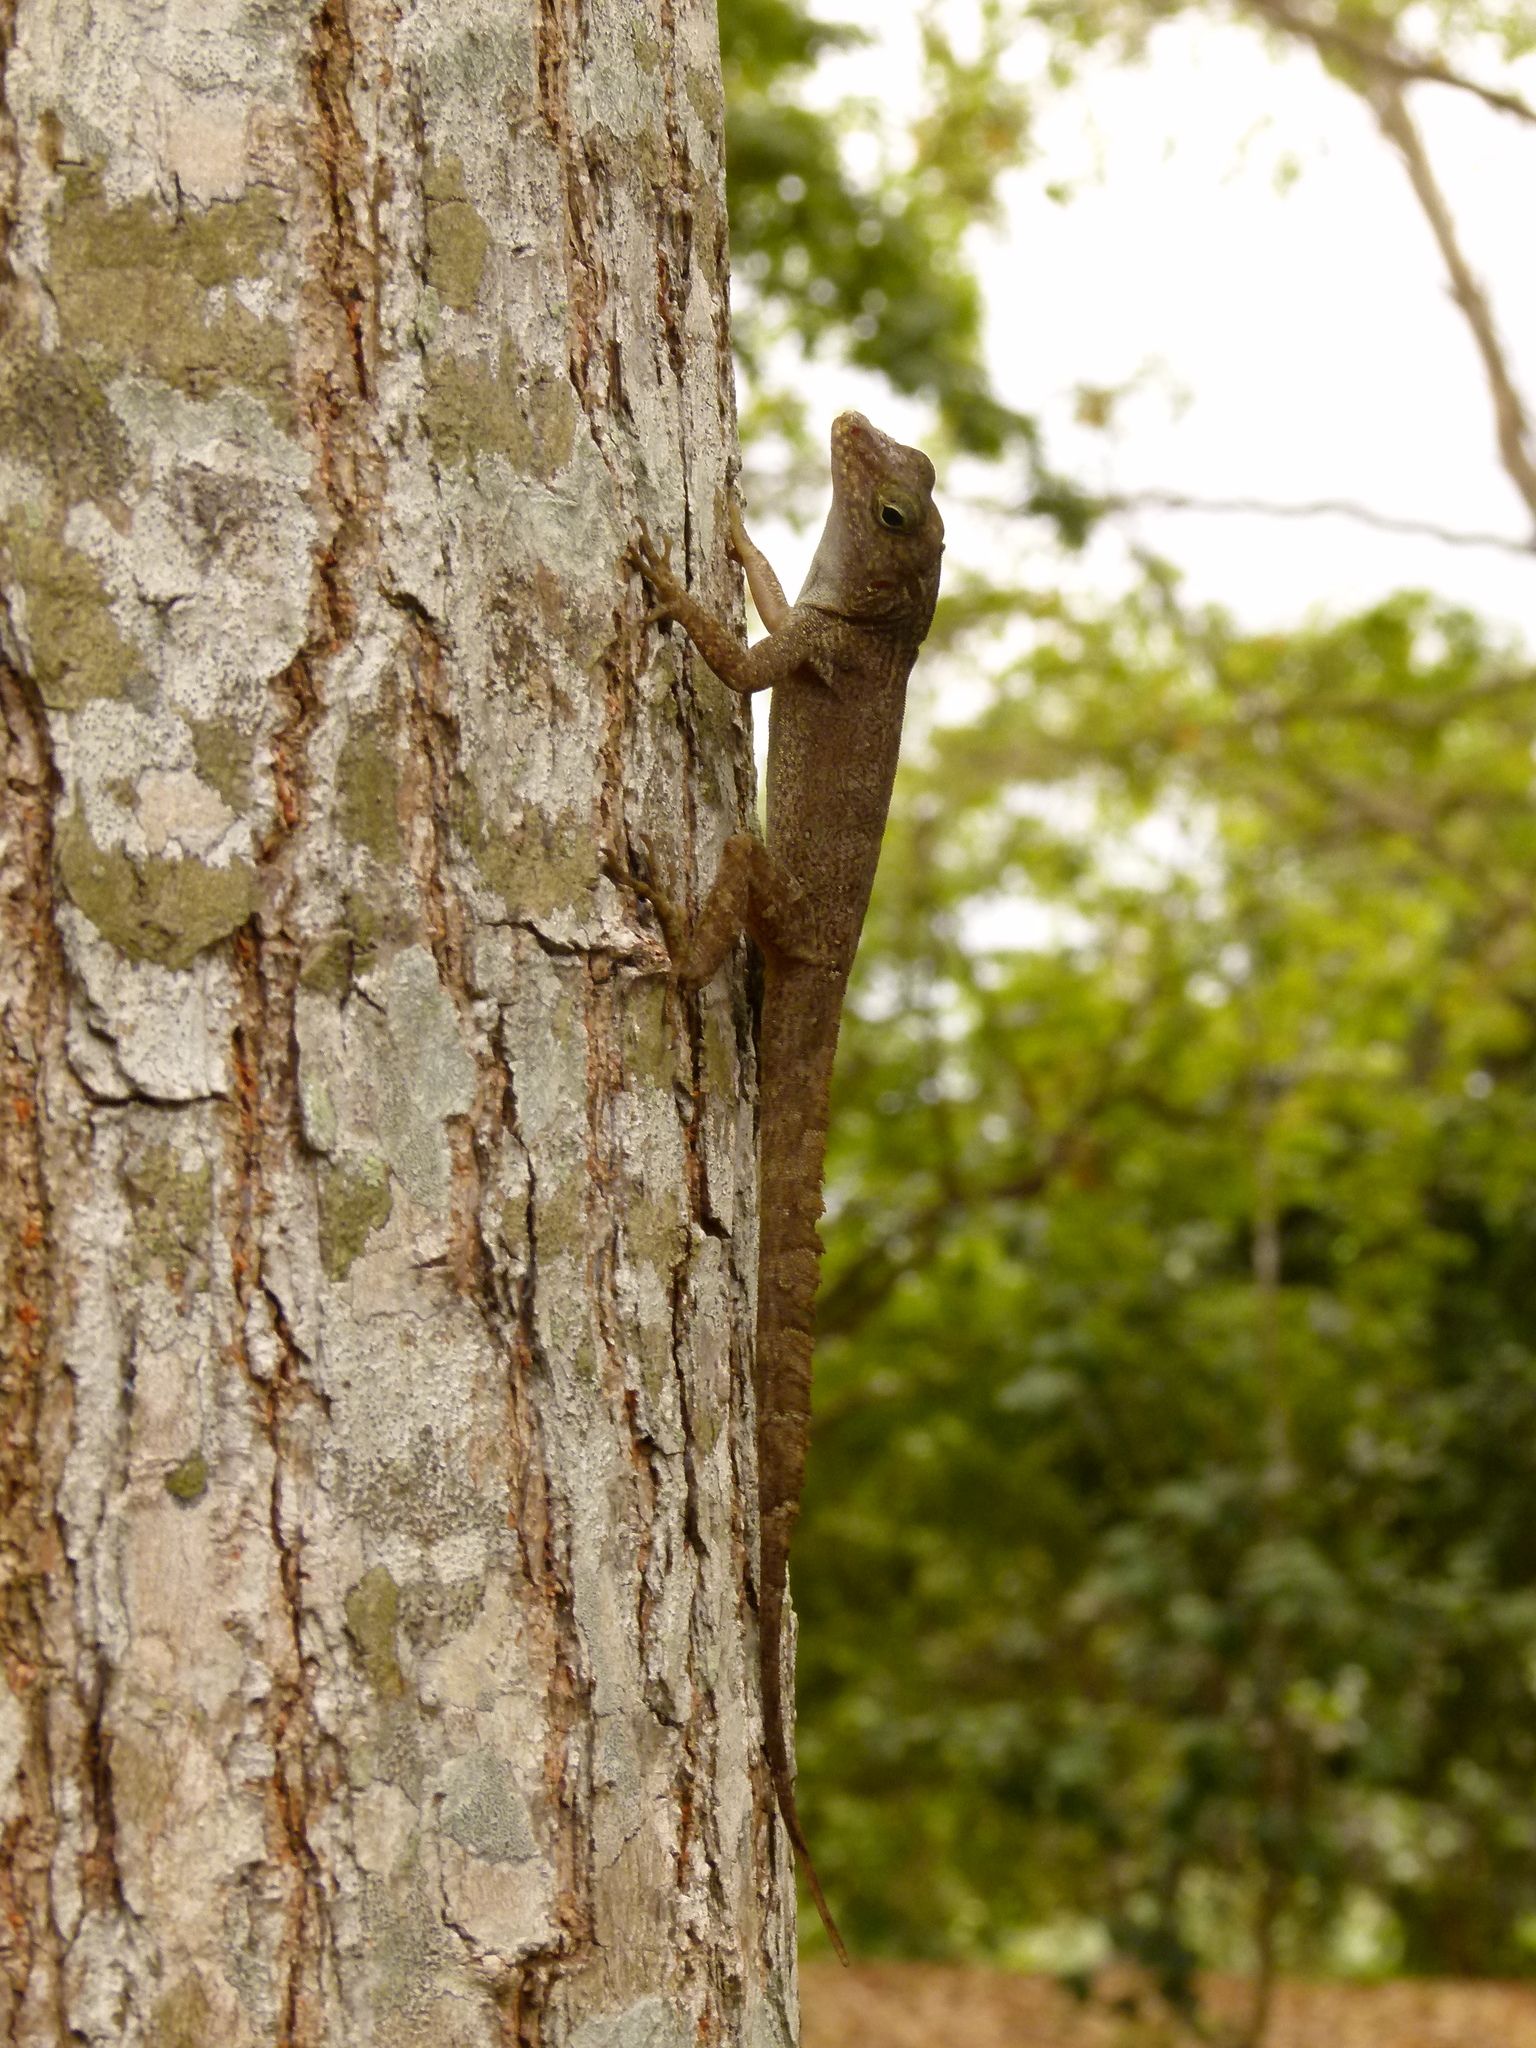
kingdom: Animalia
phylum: Chordata
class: Squamata
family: Dactyloidae
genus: Anolis
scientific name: Anolis cristatellus
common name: Crested anole
